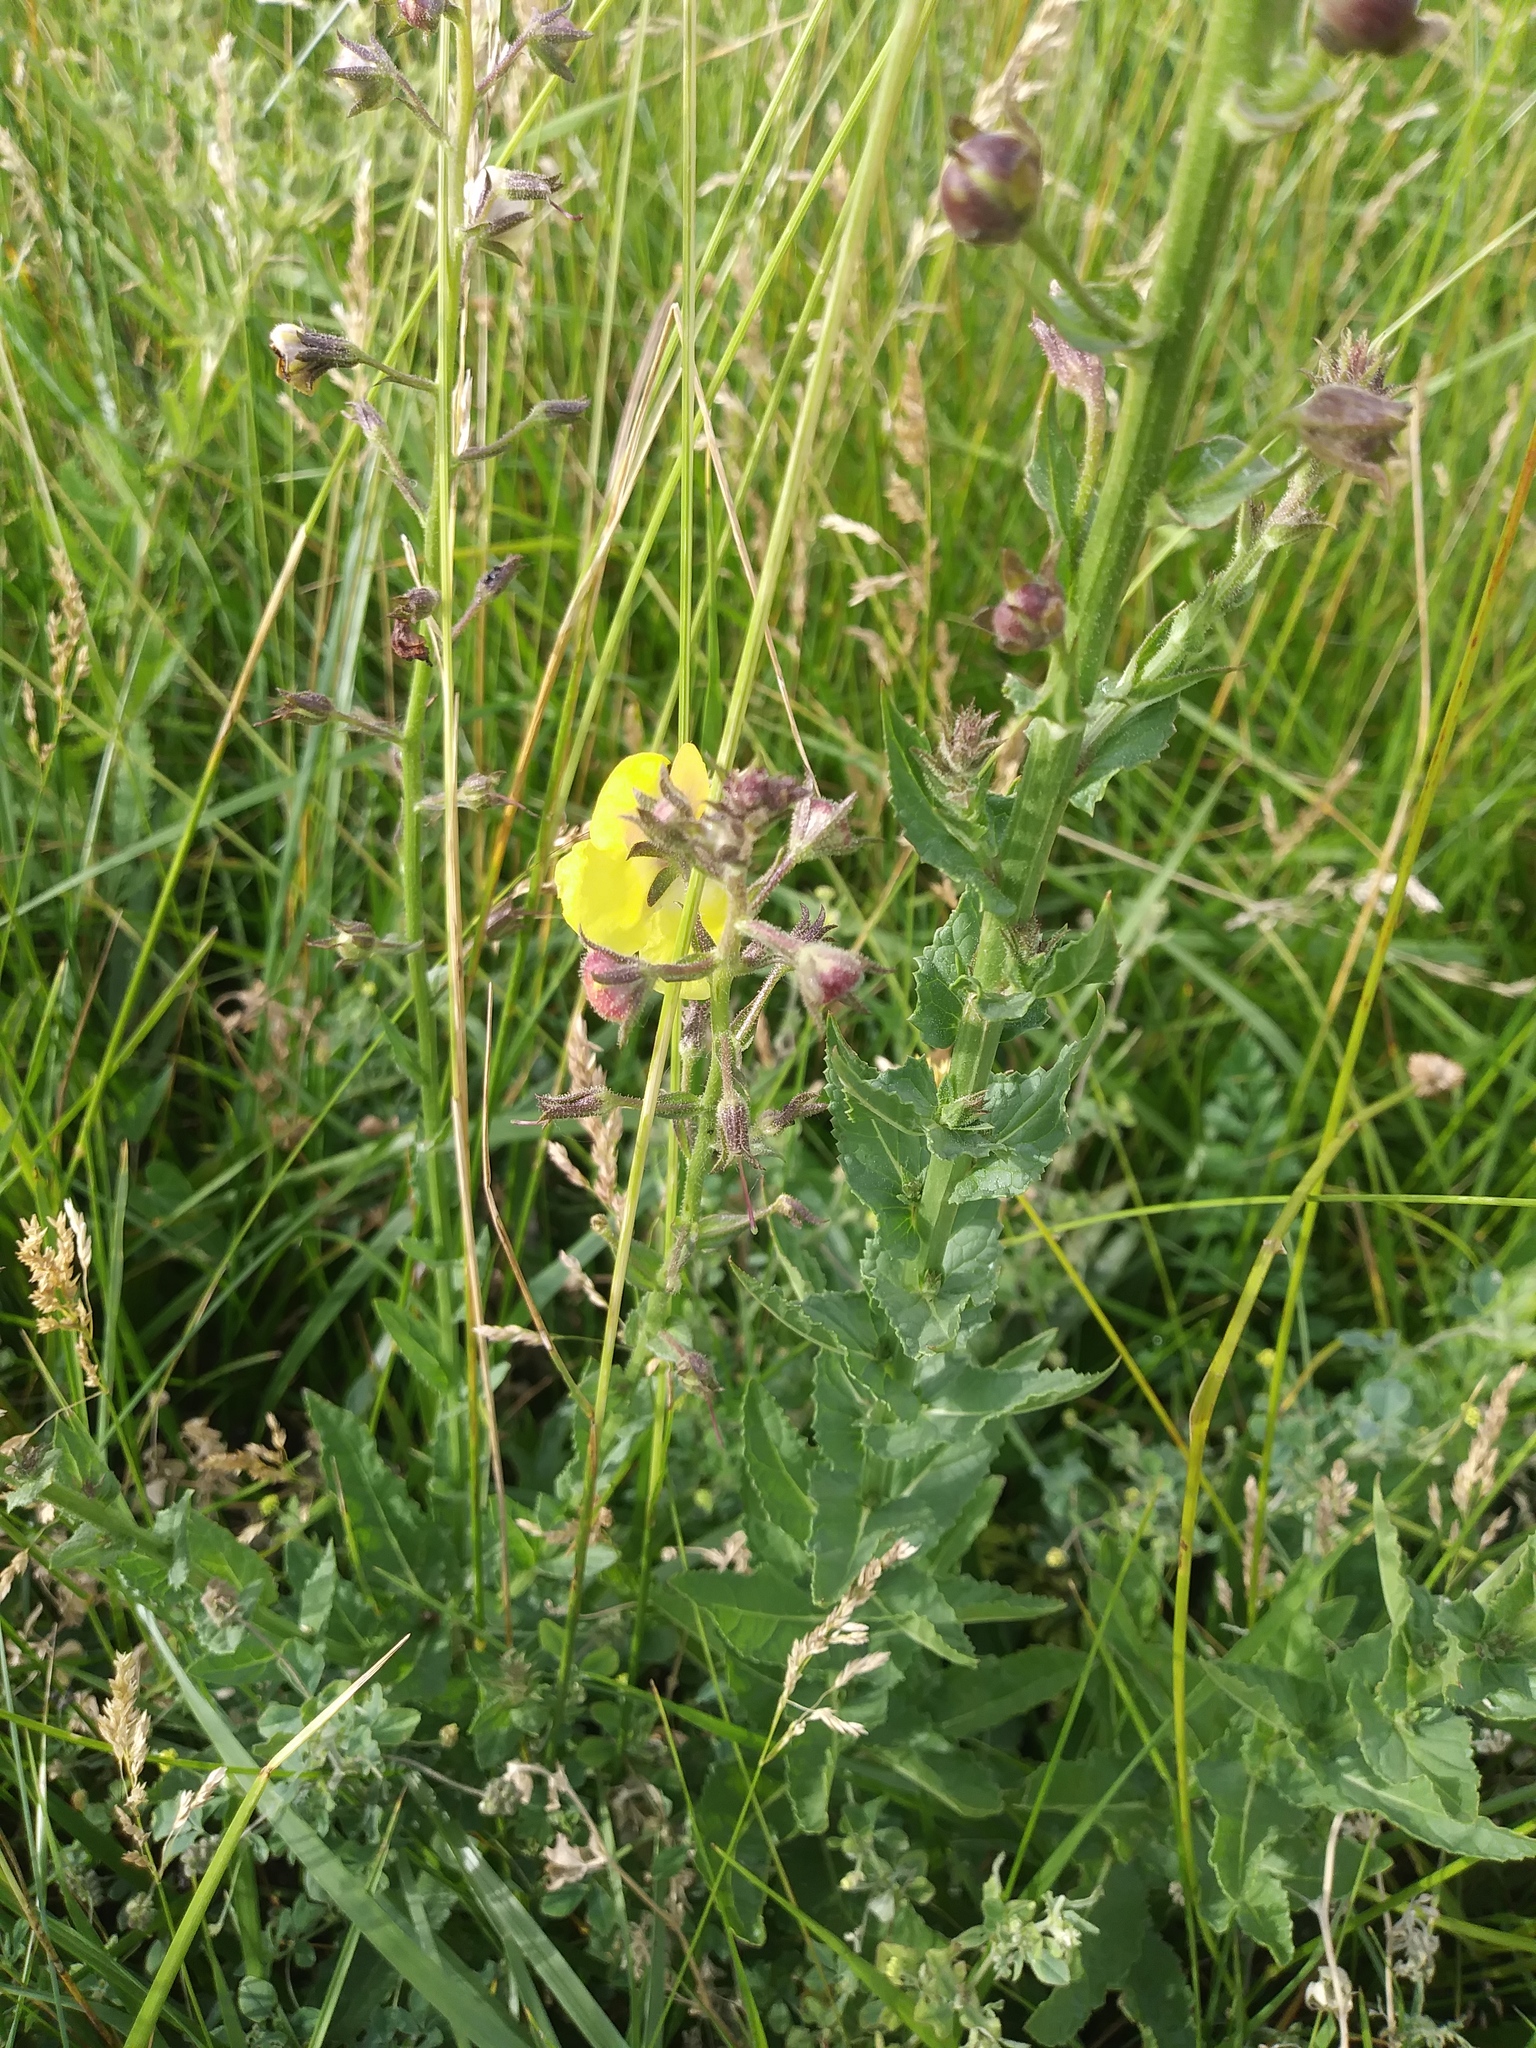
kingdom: Plantae
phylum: Tracheophyta
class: Magnoliopsida
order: Lamiales
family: Scrophulariaceae
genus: Verbascum
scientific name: Verbascum blattaria
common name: Moth mullein
